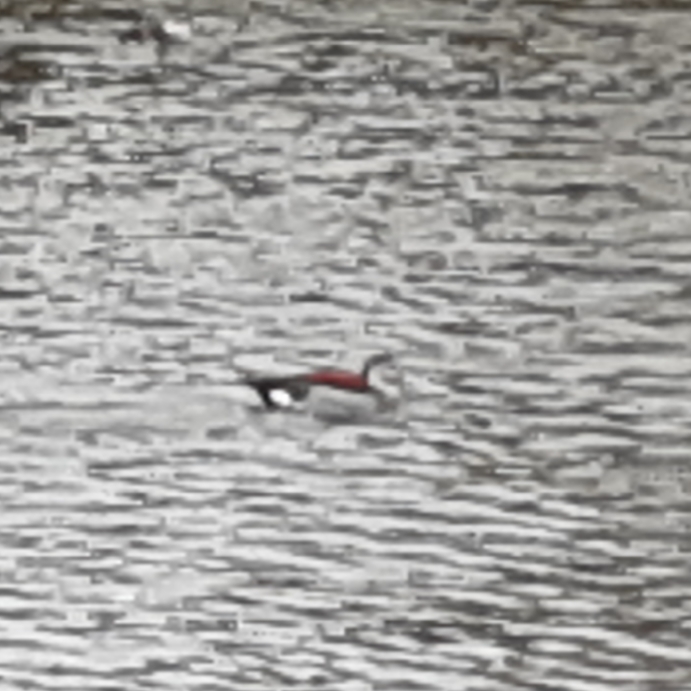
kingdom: Animalia
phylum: Chordata
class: Aves
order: Anseriformes
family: Anatidae
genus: Callonetta
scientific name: Callonetta leucophrys
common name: Ringed teal
